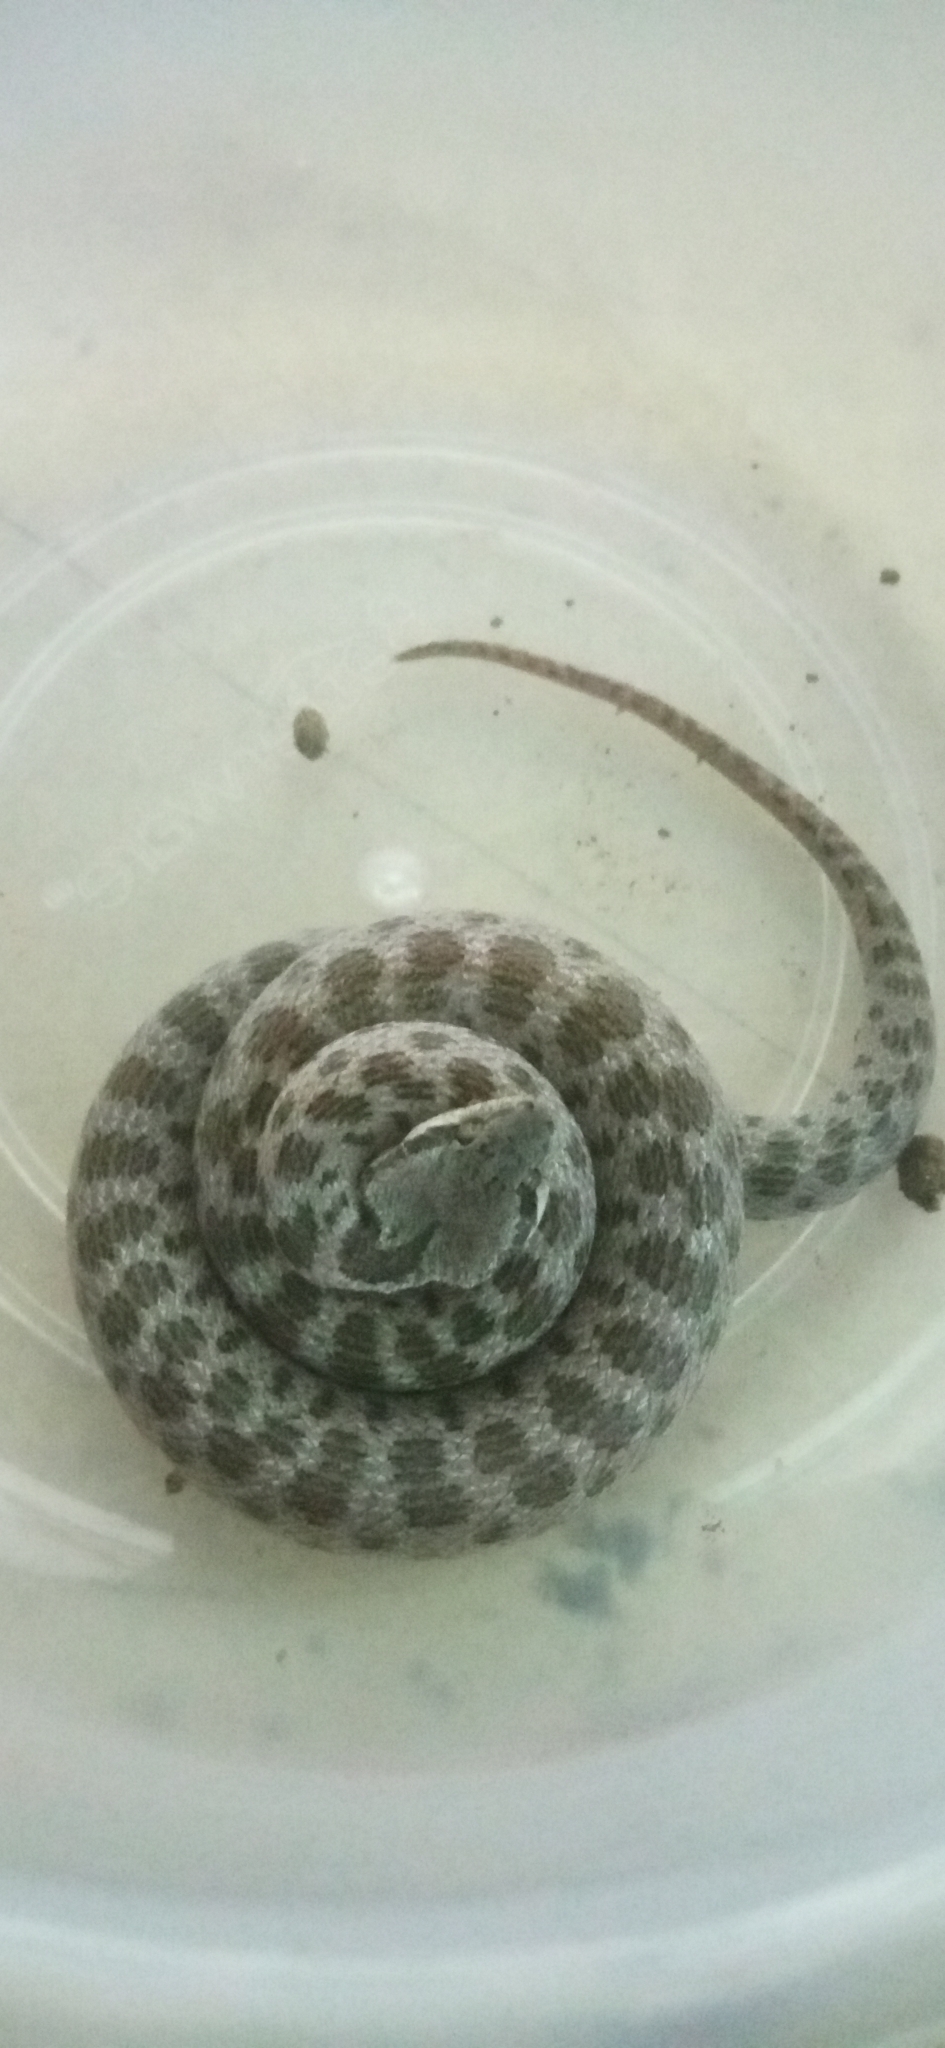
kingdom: Animalia
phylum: Chordata
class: Squamata
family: Colubridae
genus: Hypsiglena
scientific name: Hypsiglena chlorophaea
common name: Desert nightsnake
